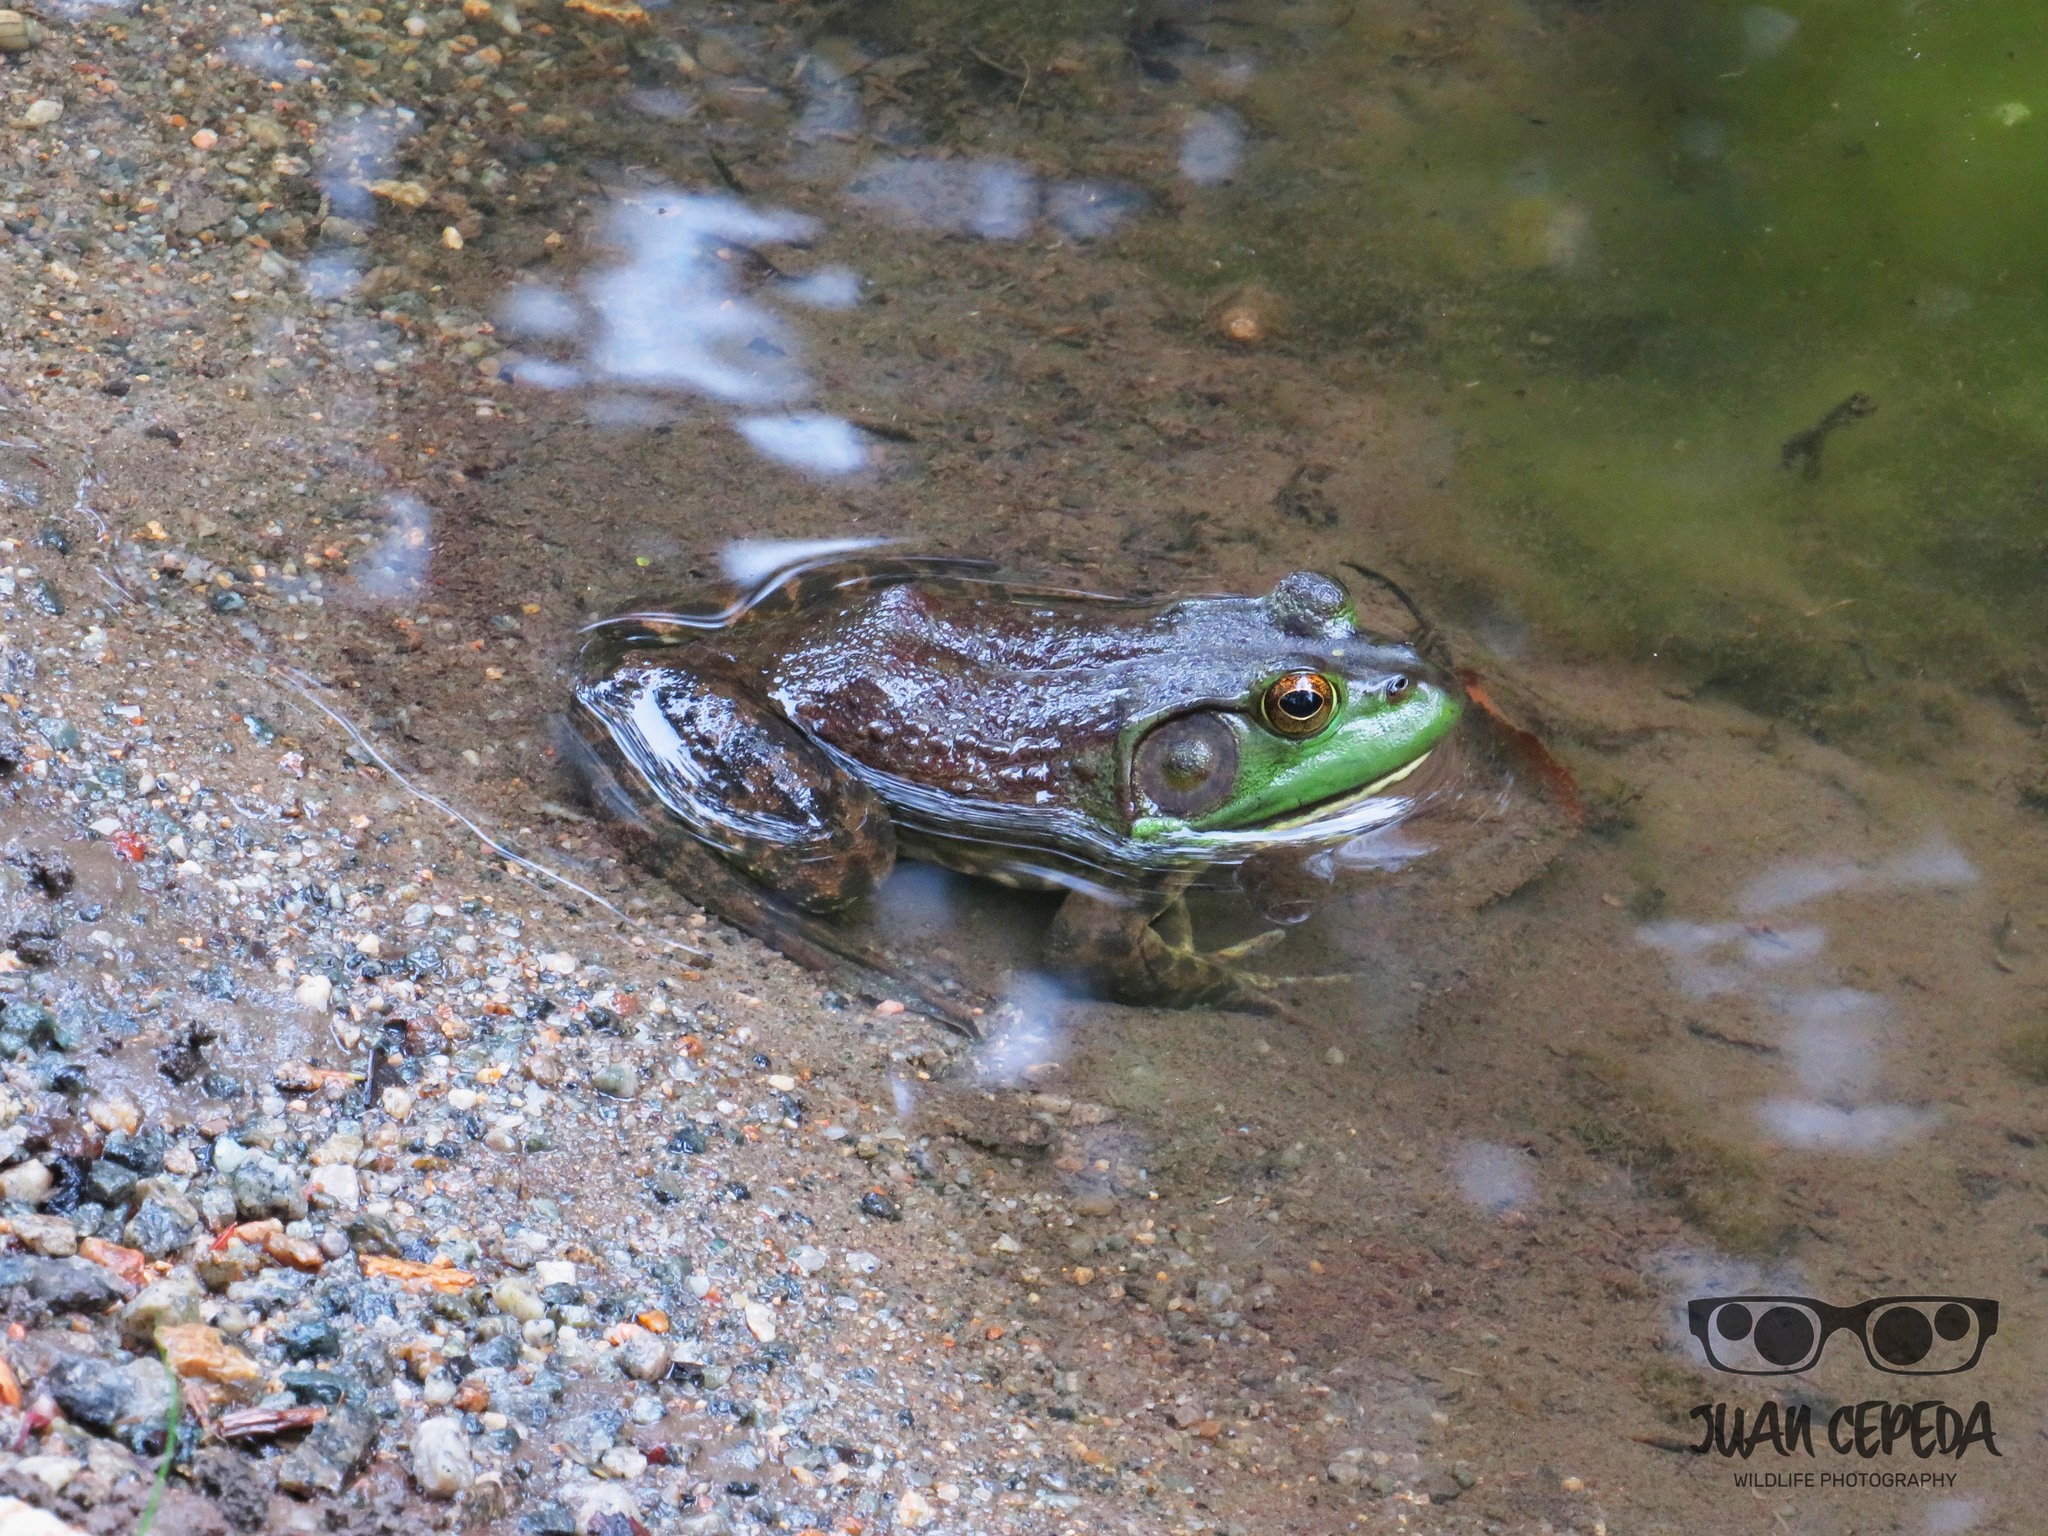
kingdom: Animalia
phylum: Chordata
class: Amphibia
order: Anura
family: Ranidae
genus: Lithobates
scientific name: Lithobates catesbeianus
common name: American bullfrog
